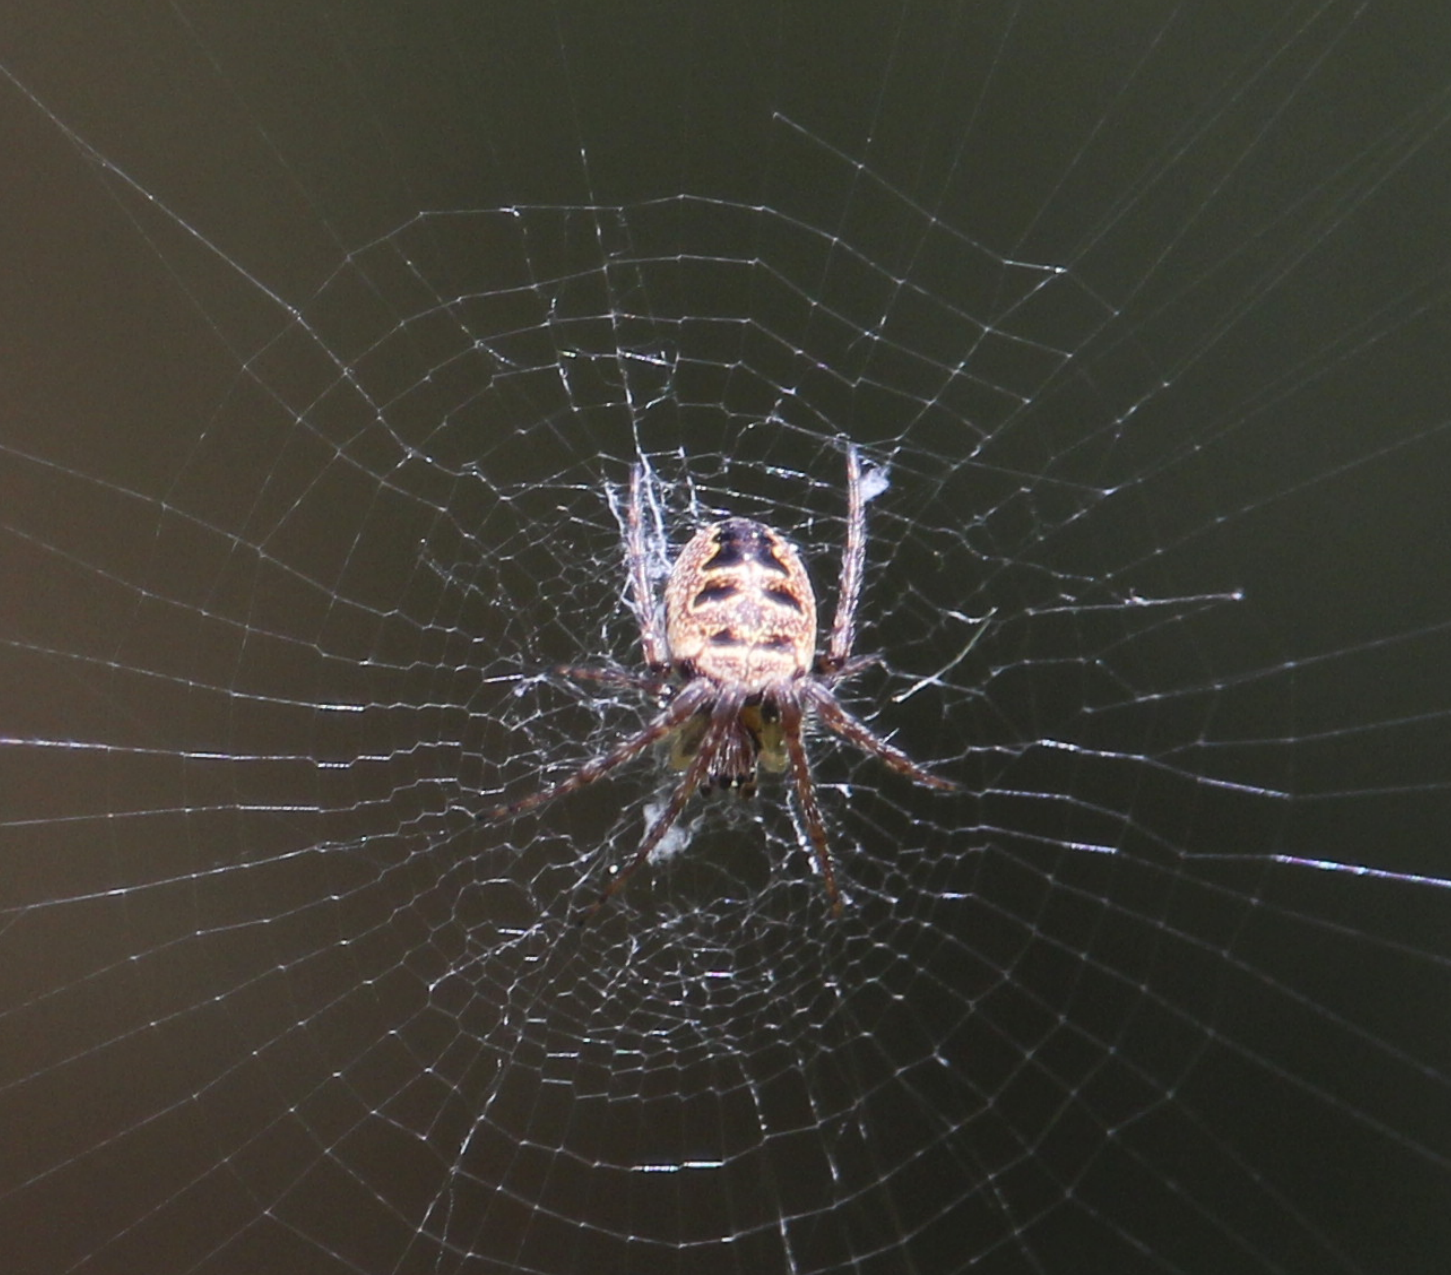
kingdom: Animalia
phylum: Arthropoda
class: Arachnida
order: Araneae
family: Araneidae
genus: Zilla
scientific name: Zilla diodia
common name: Zilla diodia
